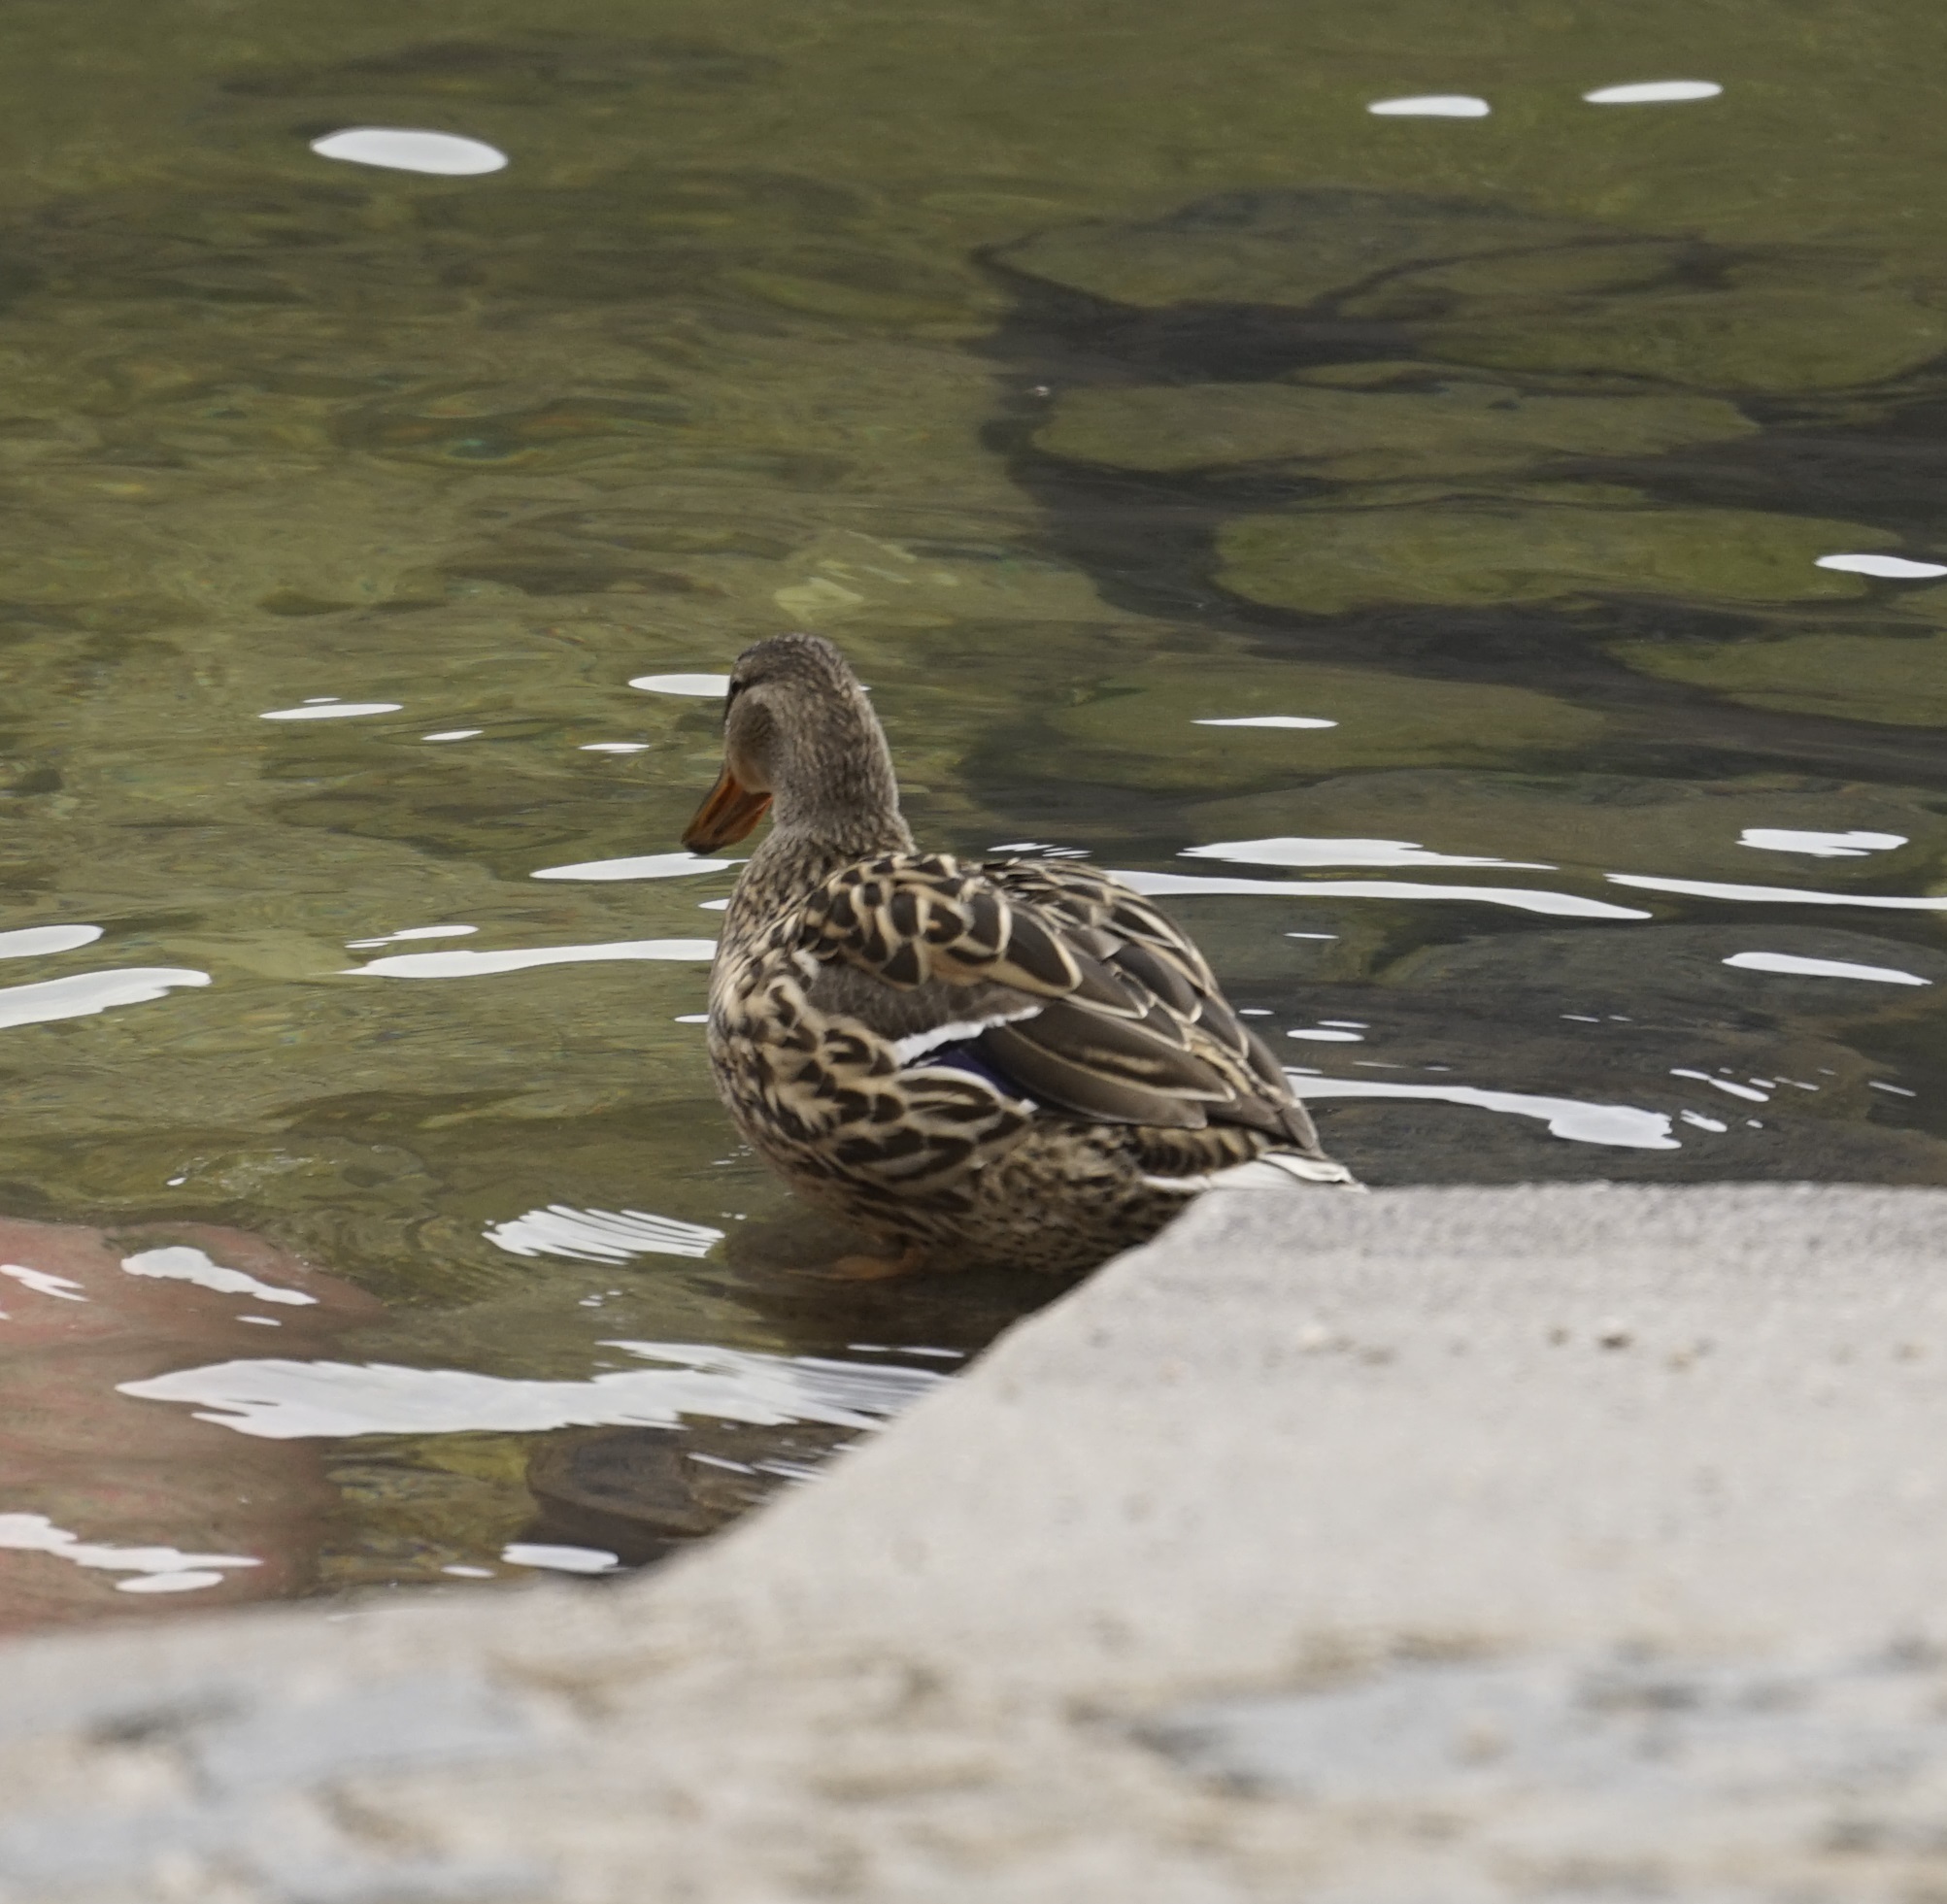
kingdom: Animalia
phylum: Chordata
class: Aves
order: Anseriformes
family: Anatidae
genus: Anas
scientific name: Anas platyrhynchos
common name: Mallard
